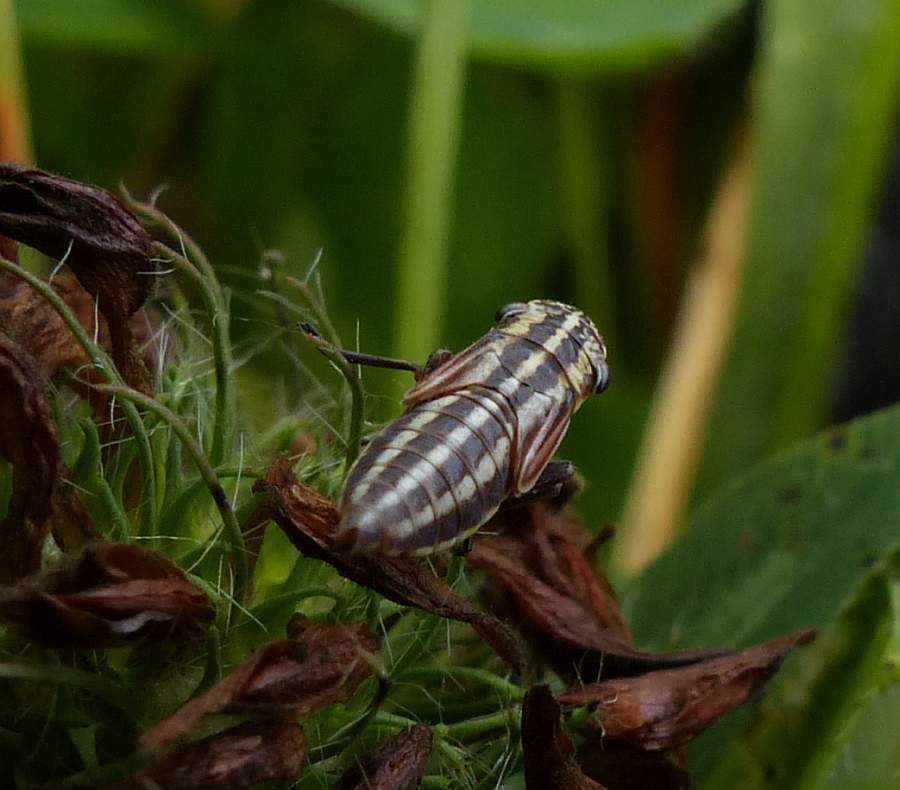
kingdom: Animalia
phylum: Arthropoda
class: Insecta
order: Hemiptera
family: Cicadellidae
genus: Cuerna
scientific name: Cuerna striata
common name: Striped leafhopper
